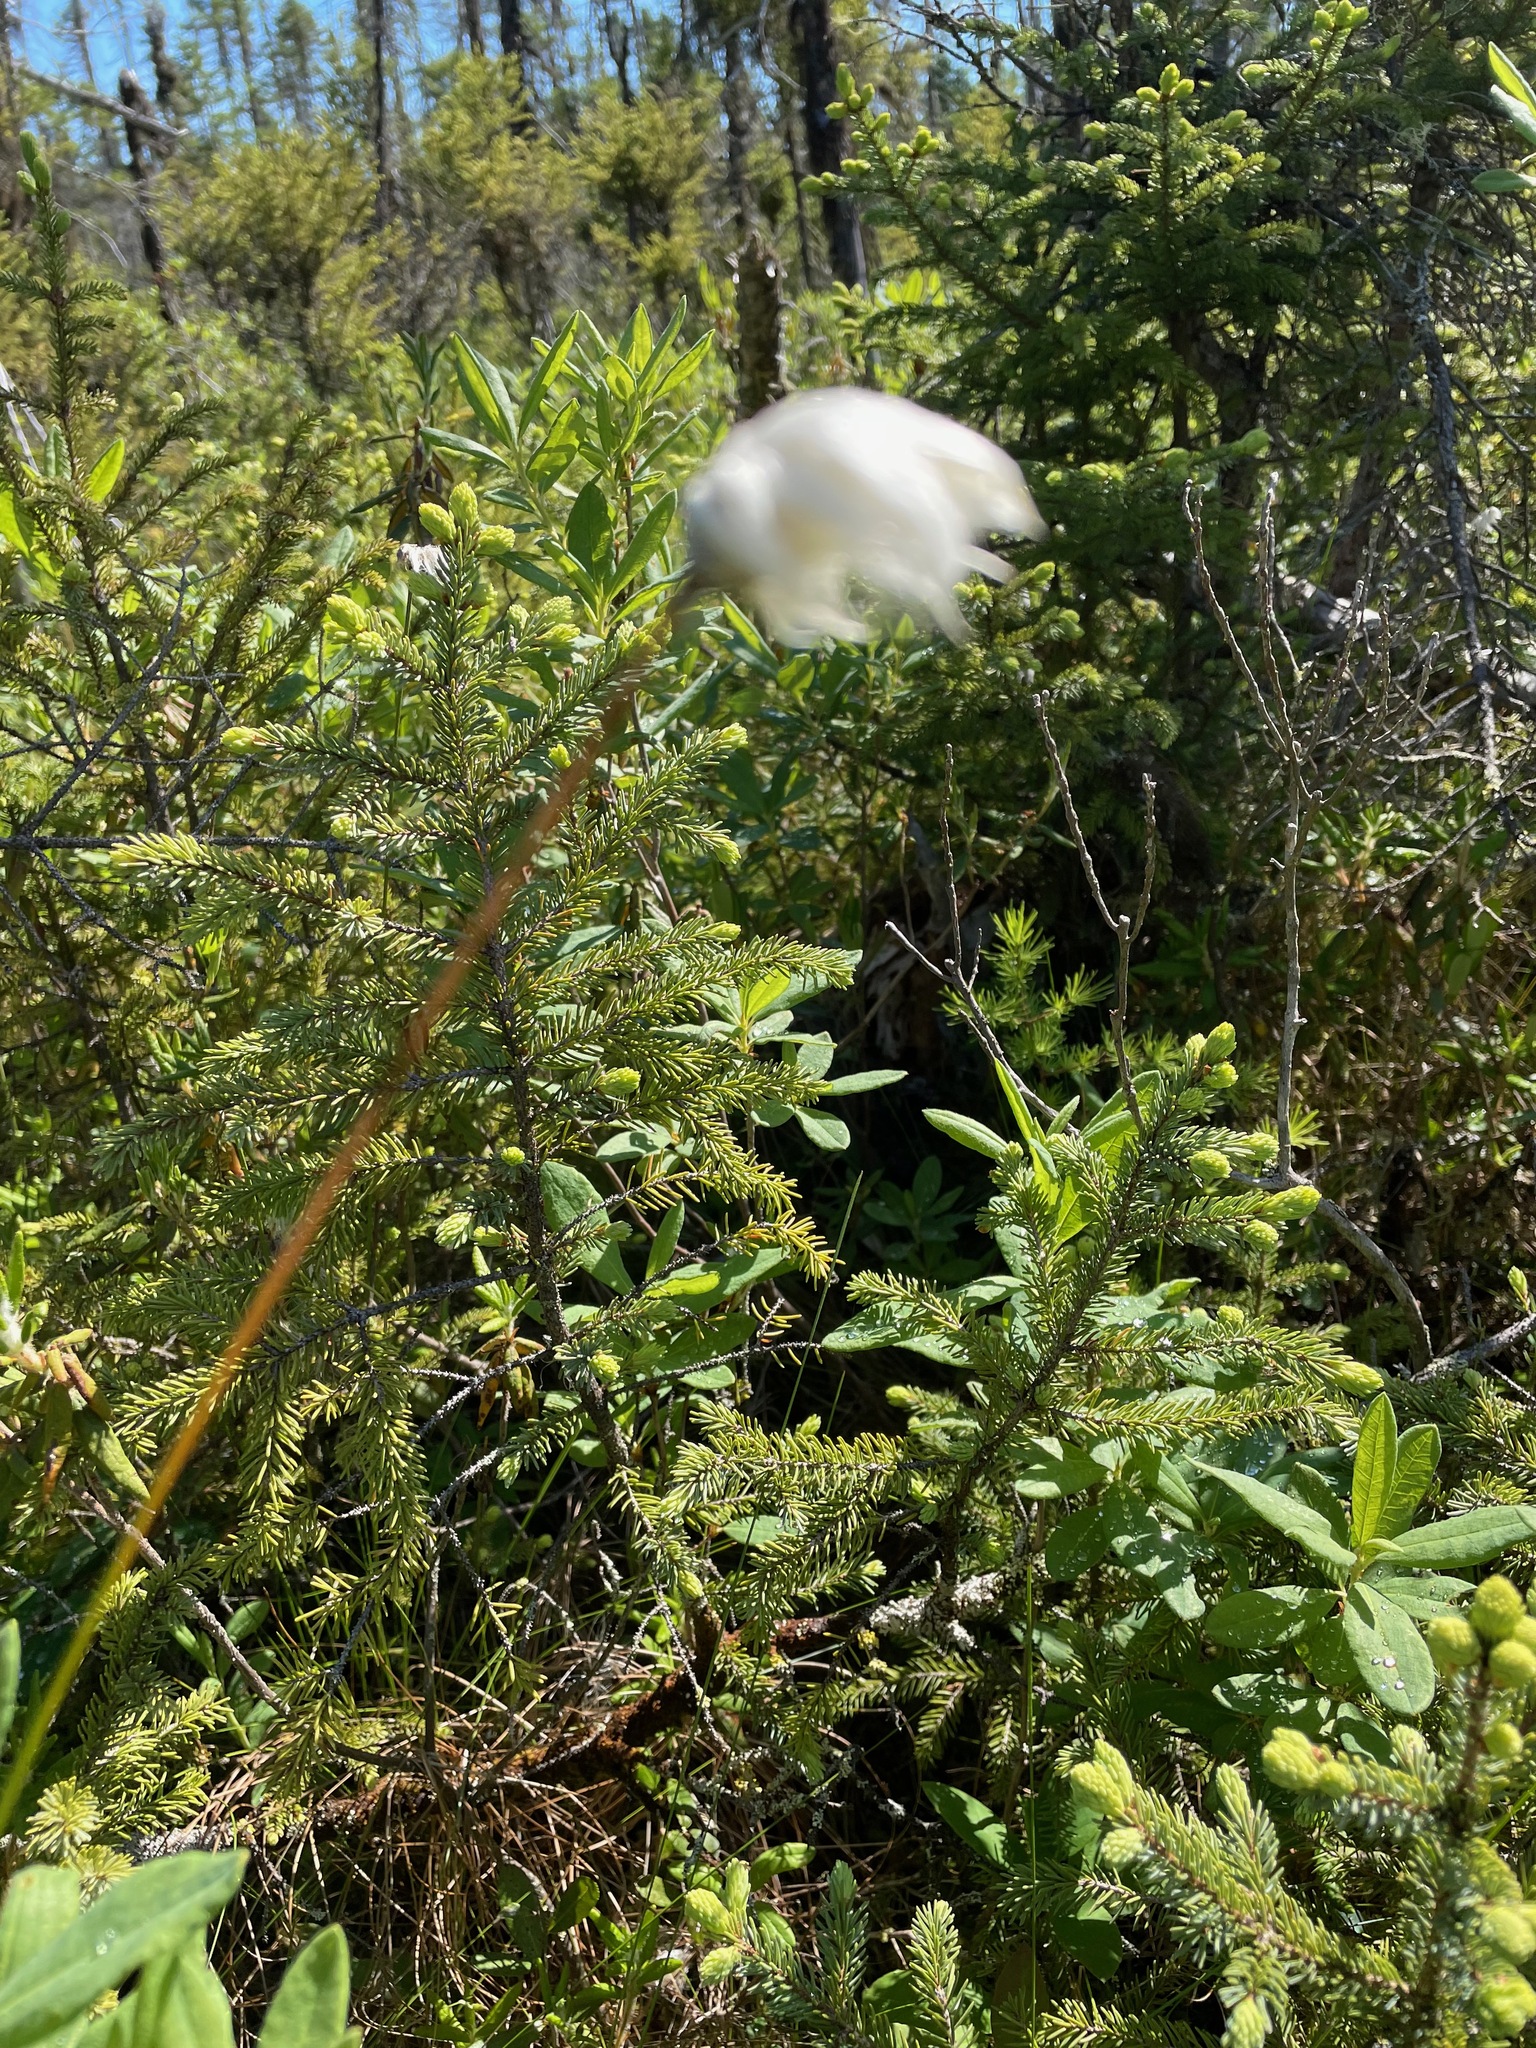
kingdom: Plantae
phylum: Tracheophyta
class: Liliopsida
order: Poales
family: Cyperaceae
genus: Eriophorum
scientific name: Eriophorum vaginatum
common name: Hare's-tail cottongrass
